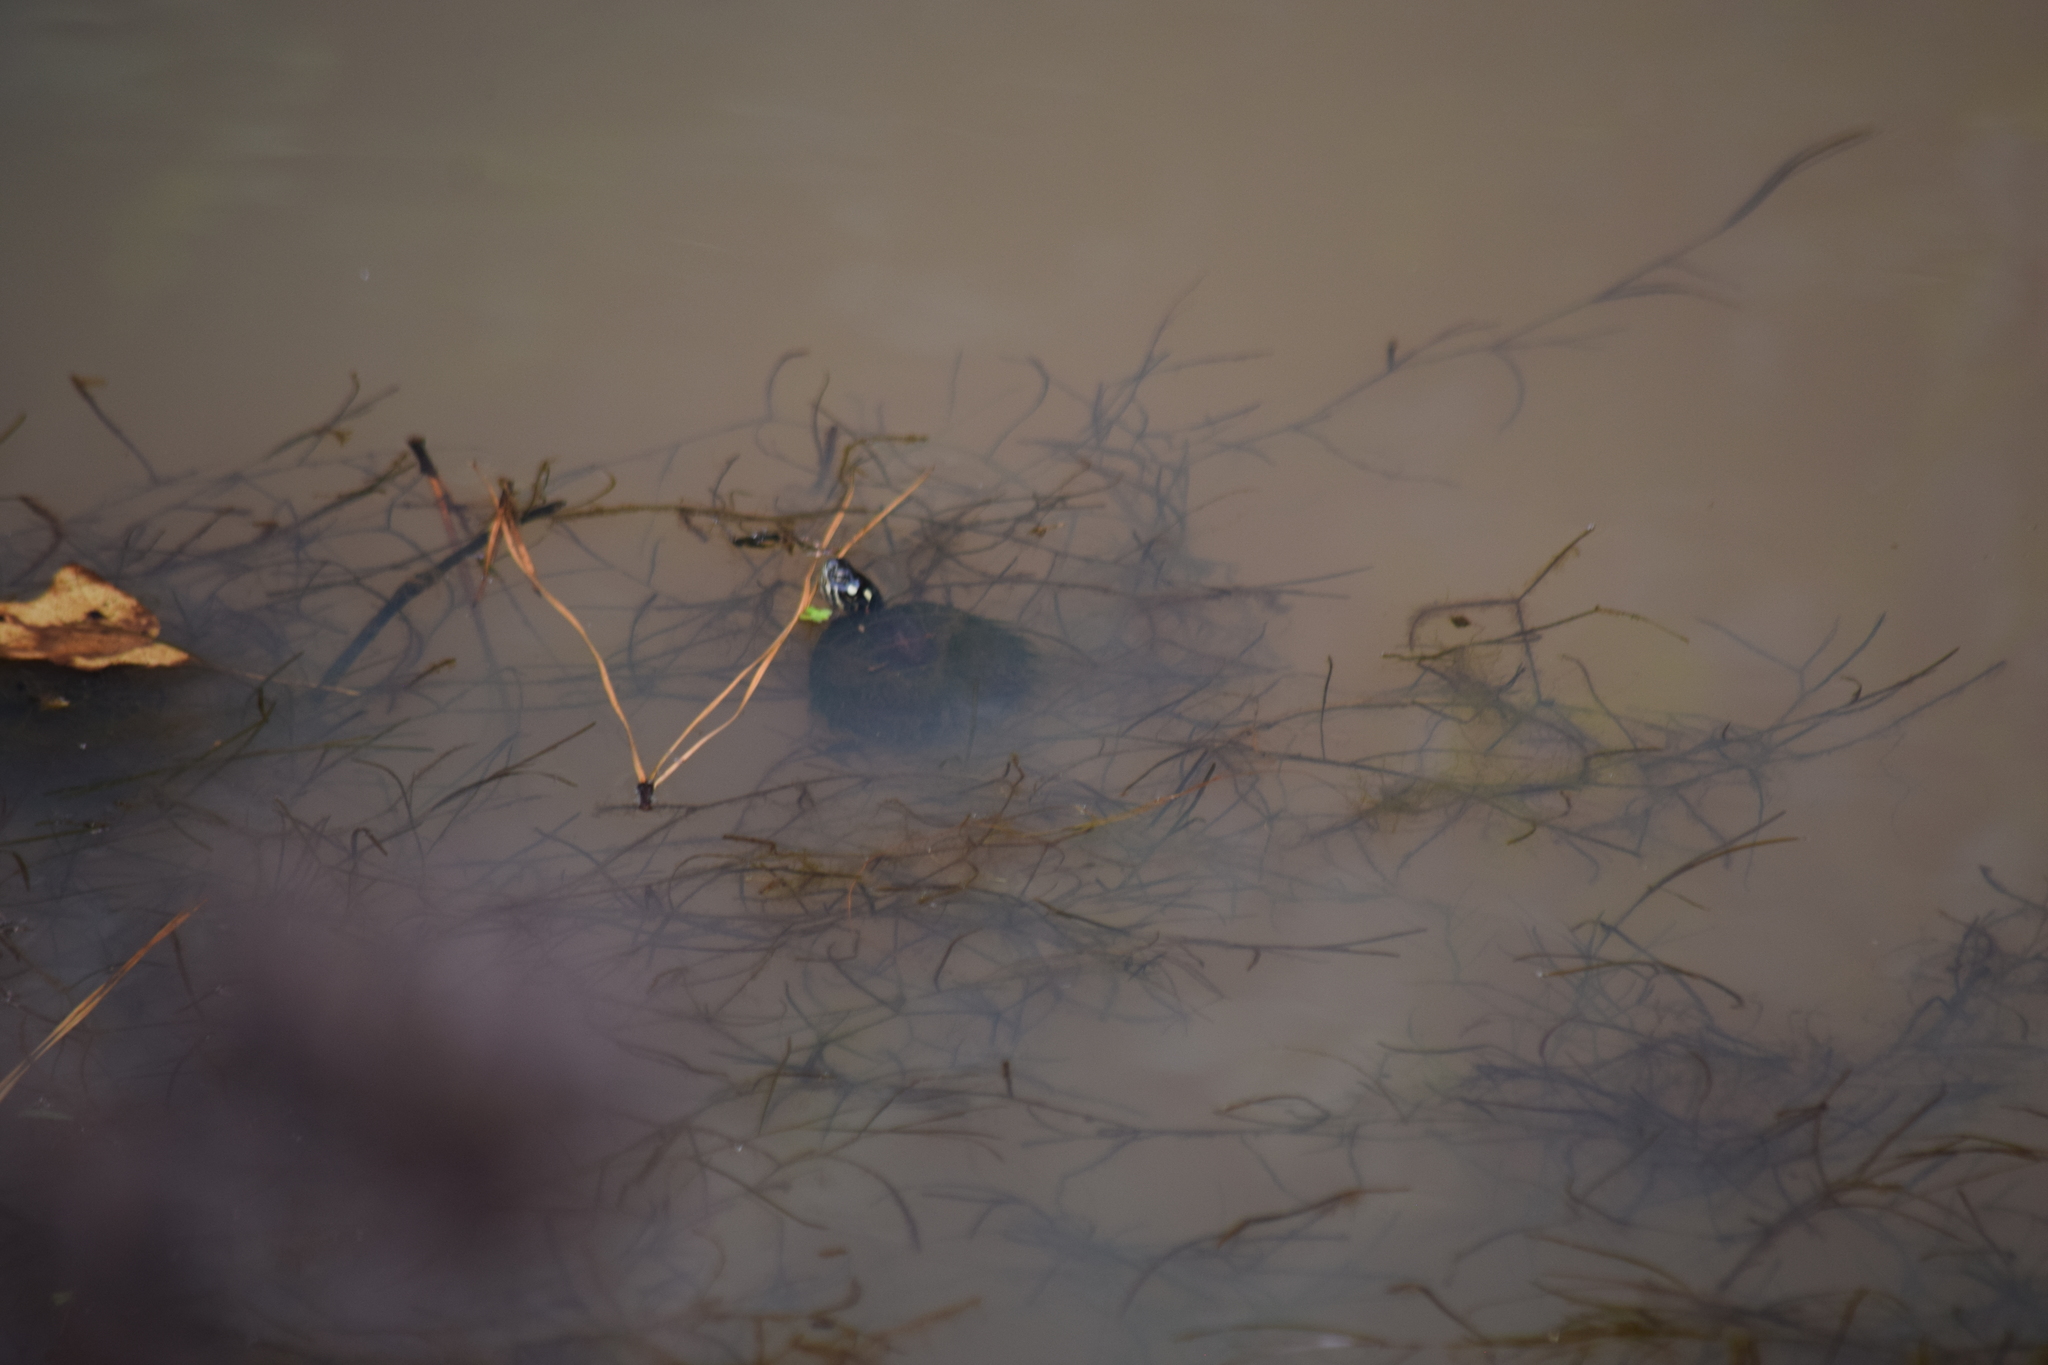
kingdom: Animalia
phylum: Chordata
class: Testudines
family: Emydidae
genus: Chrysemys
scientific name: Chrysemys picta
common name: Painted turtle
